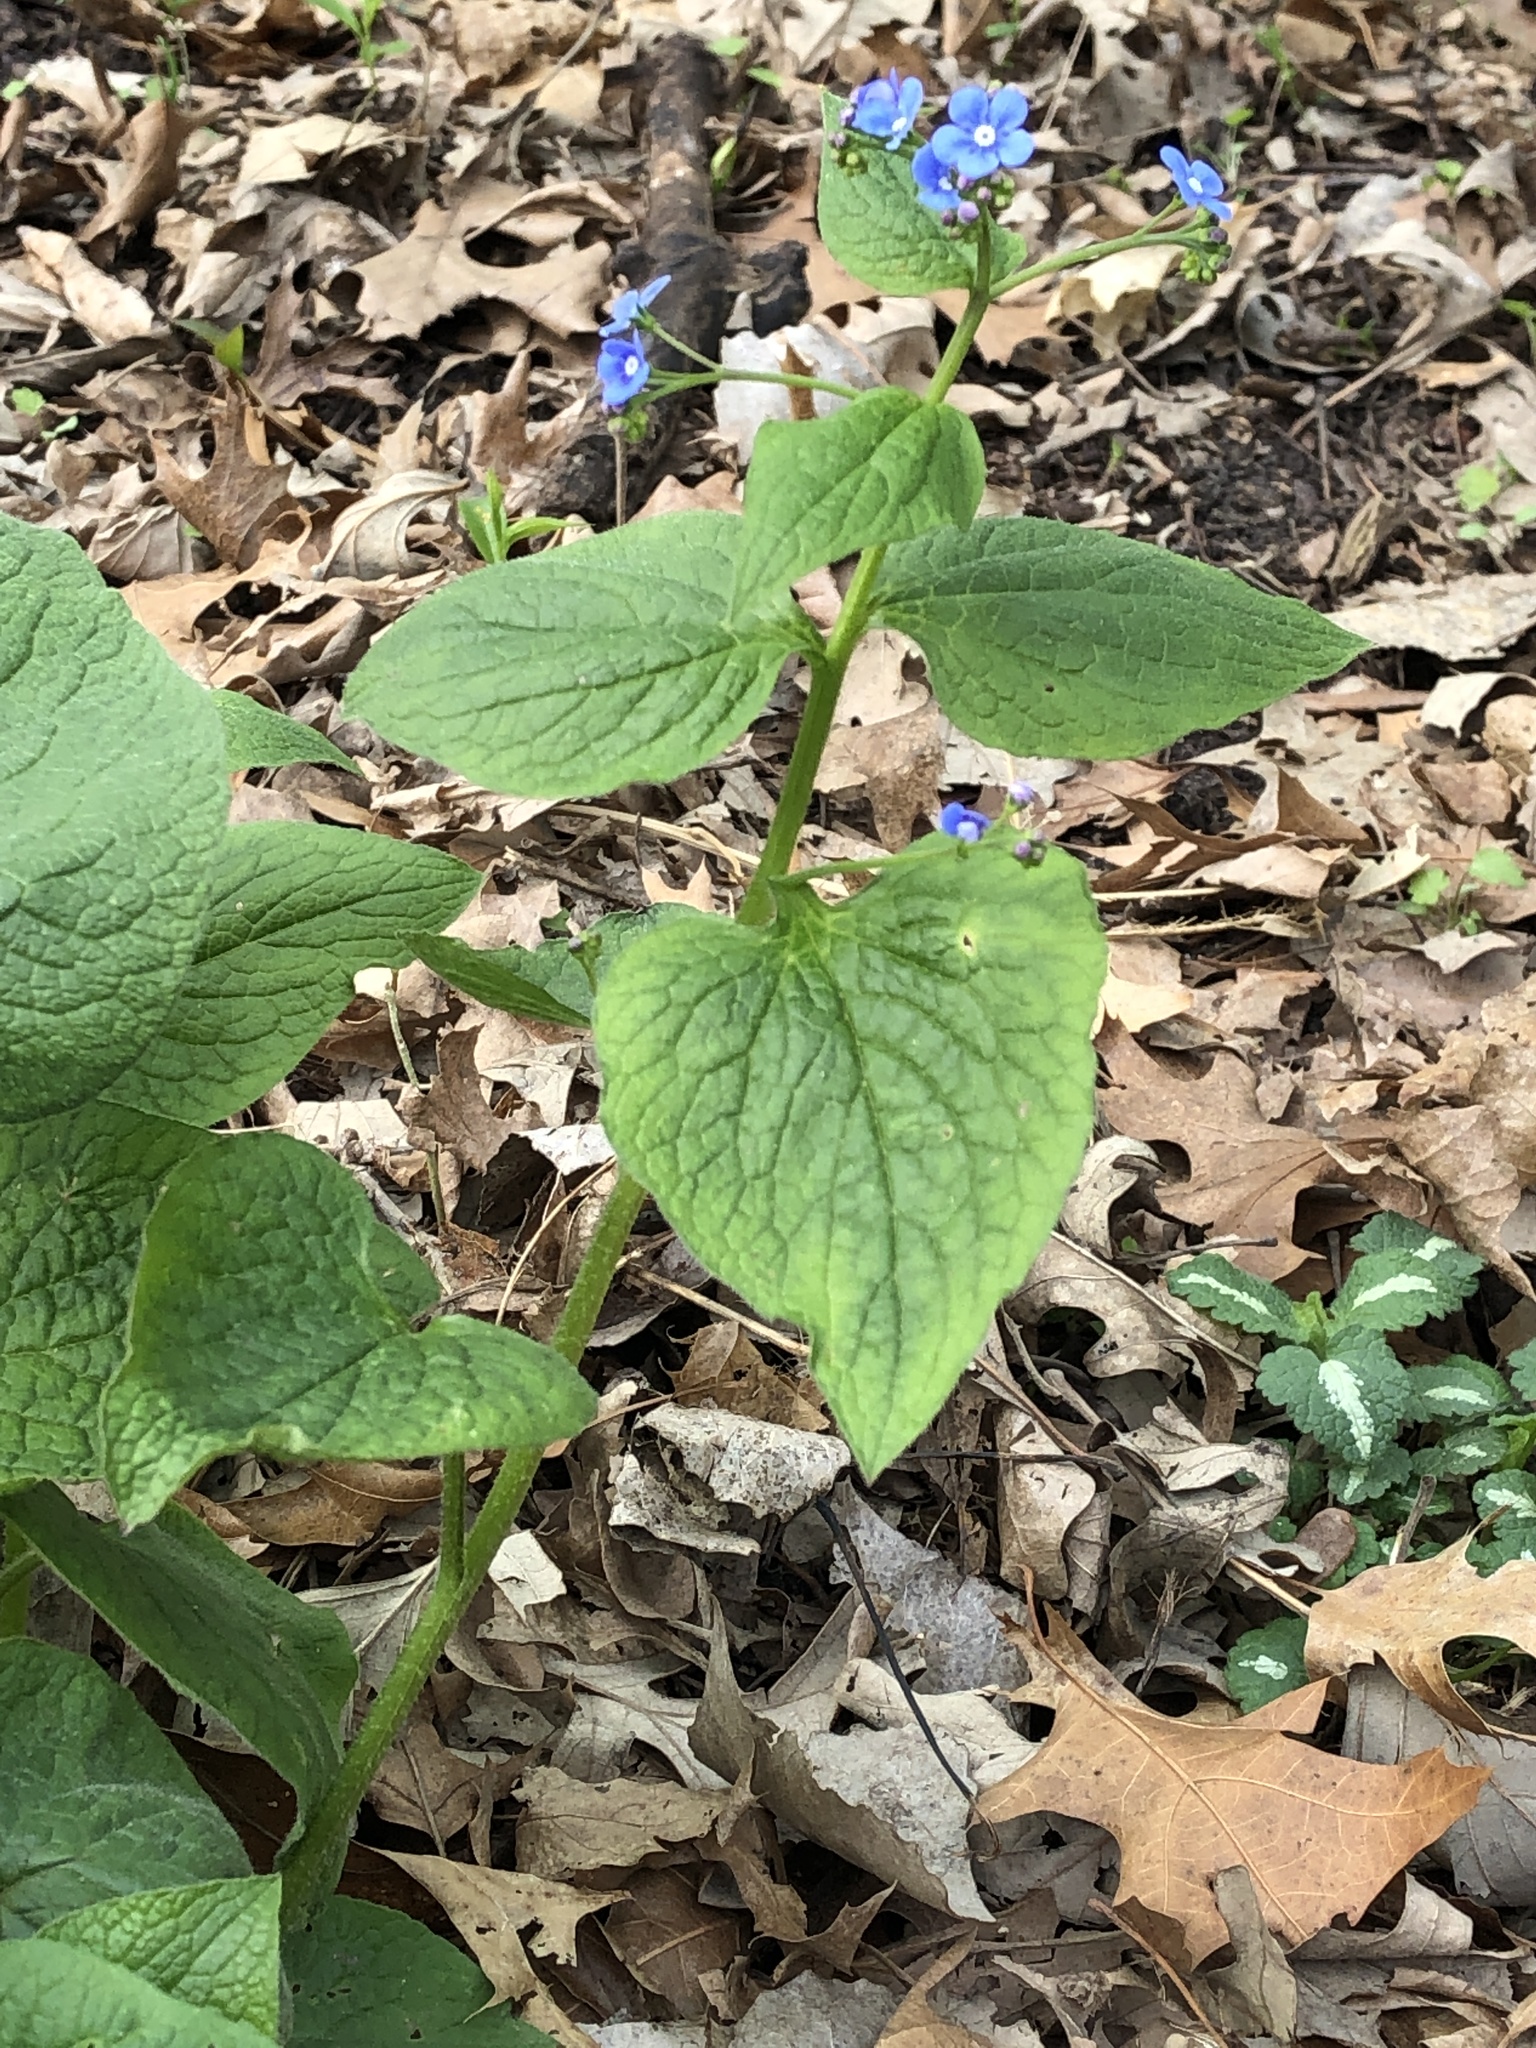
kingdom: Plantae
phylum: Tracheophyta
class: Magnoliopsida
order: Boraginales
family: Boraginaceae
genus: Brunnera
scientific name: Brunnera macrophylla
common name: Great forget-me-not
